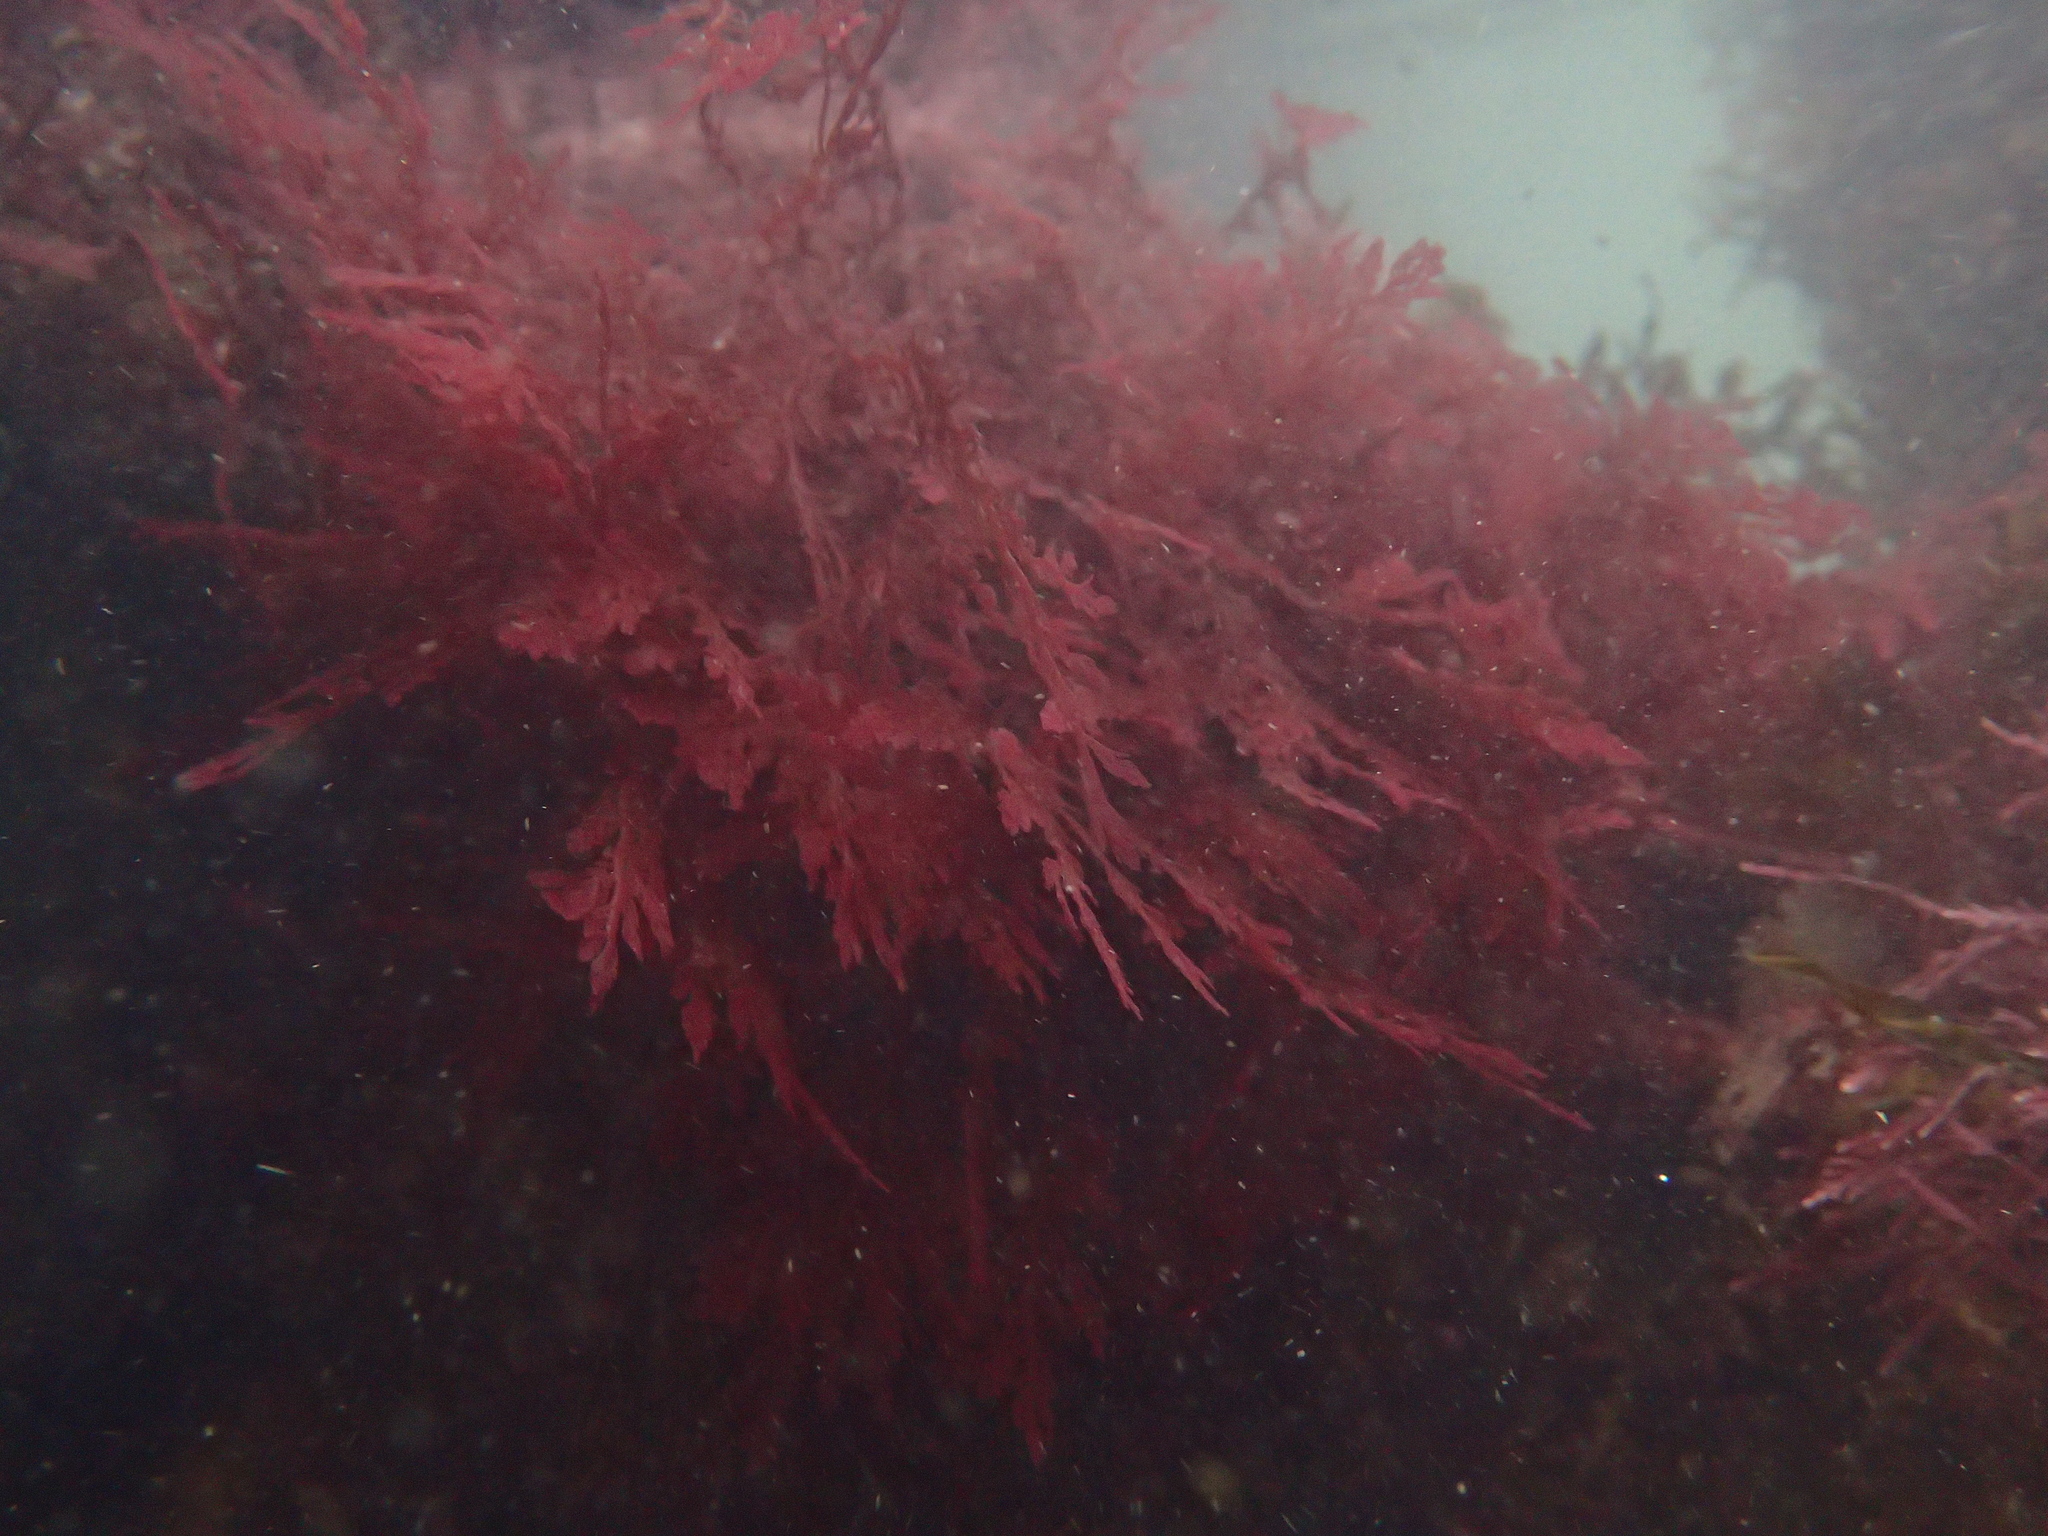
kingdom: Plantae
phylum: Rhodophyta
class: Florideophyceae
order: Plocamiales
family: Plocamiaceae
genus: Plocamium
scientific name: Plocamium cartilagineum
